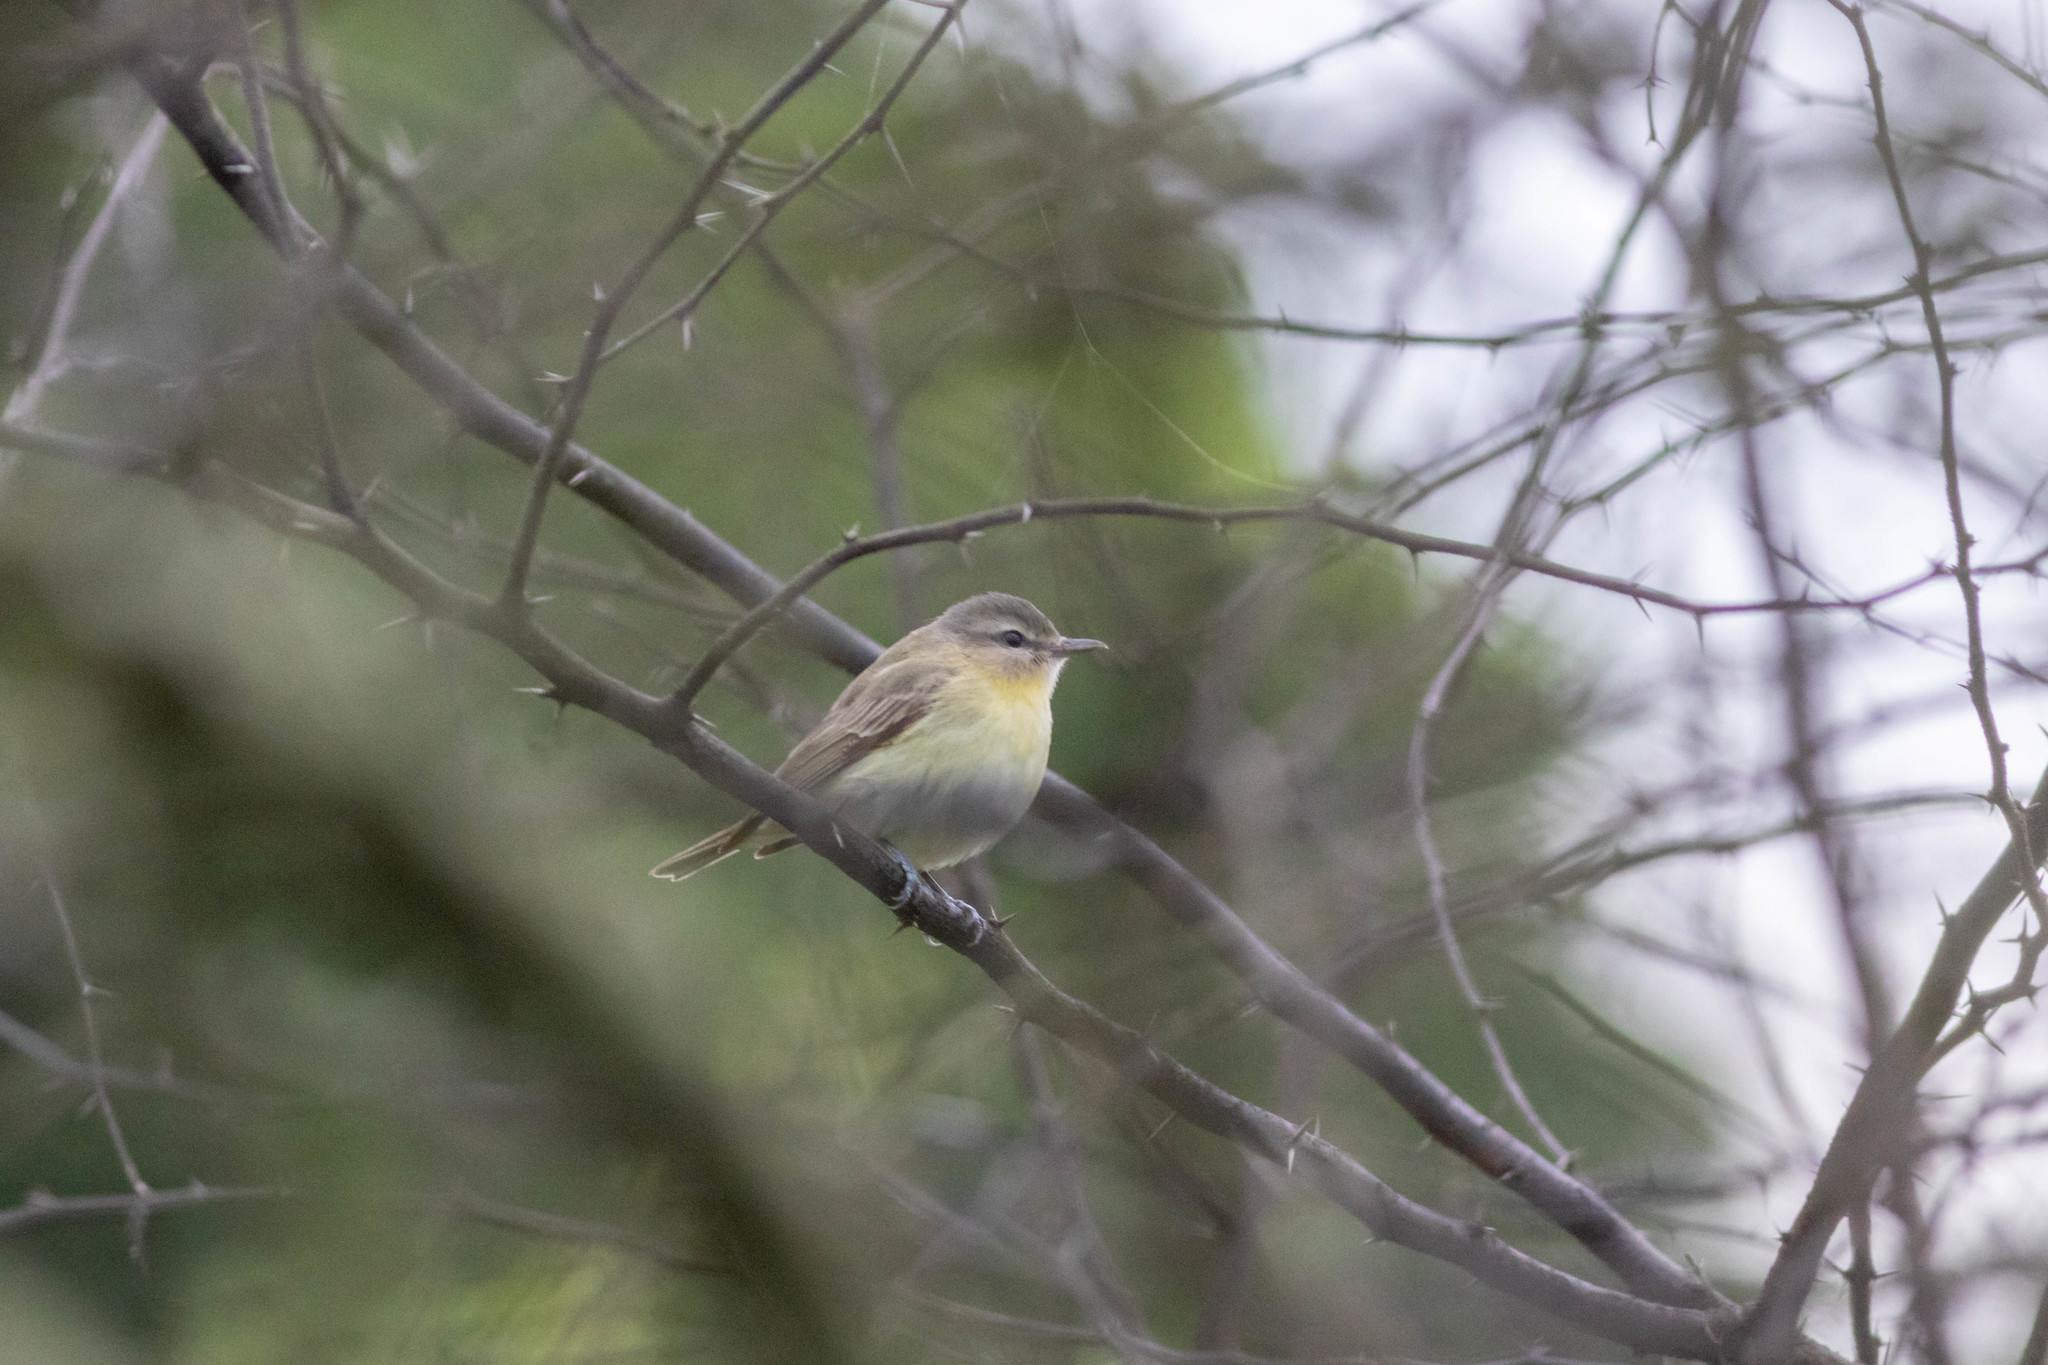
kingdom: Animalia
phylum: Chordata
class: Aves
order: Passeriformes
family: Vireonidae
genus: Vireo
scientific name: Vireo philadelphicus
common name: Philadelphia vireo
